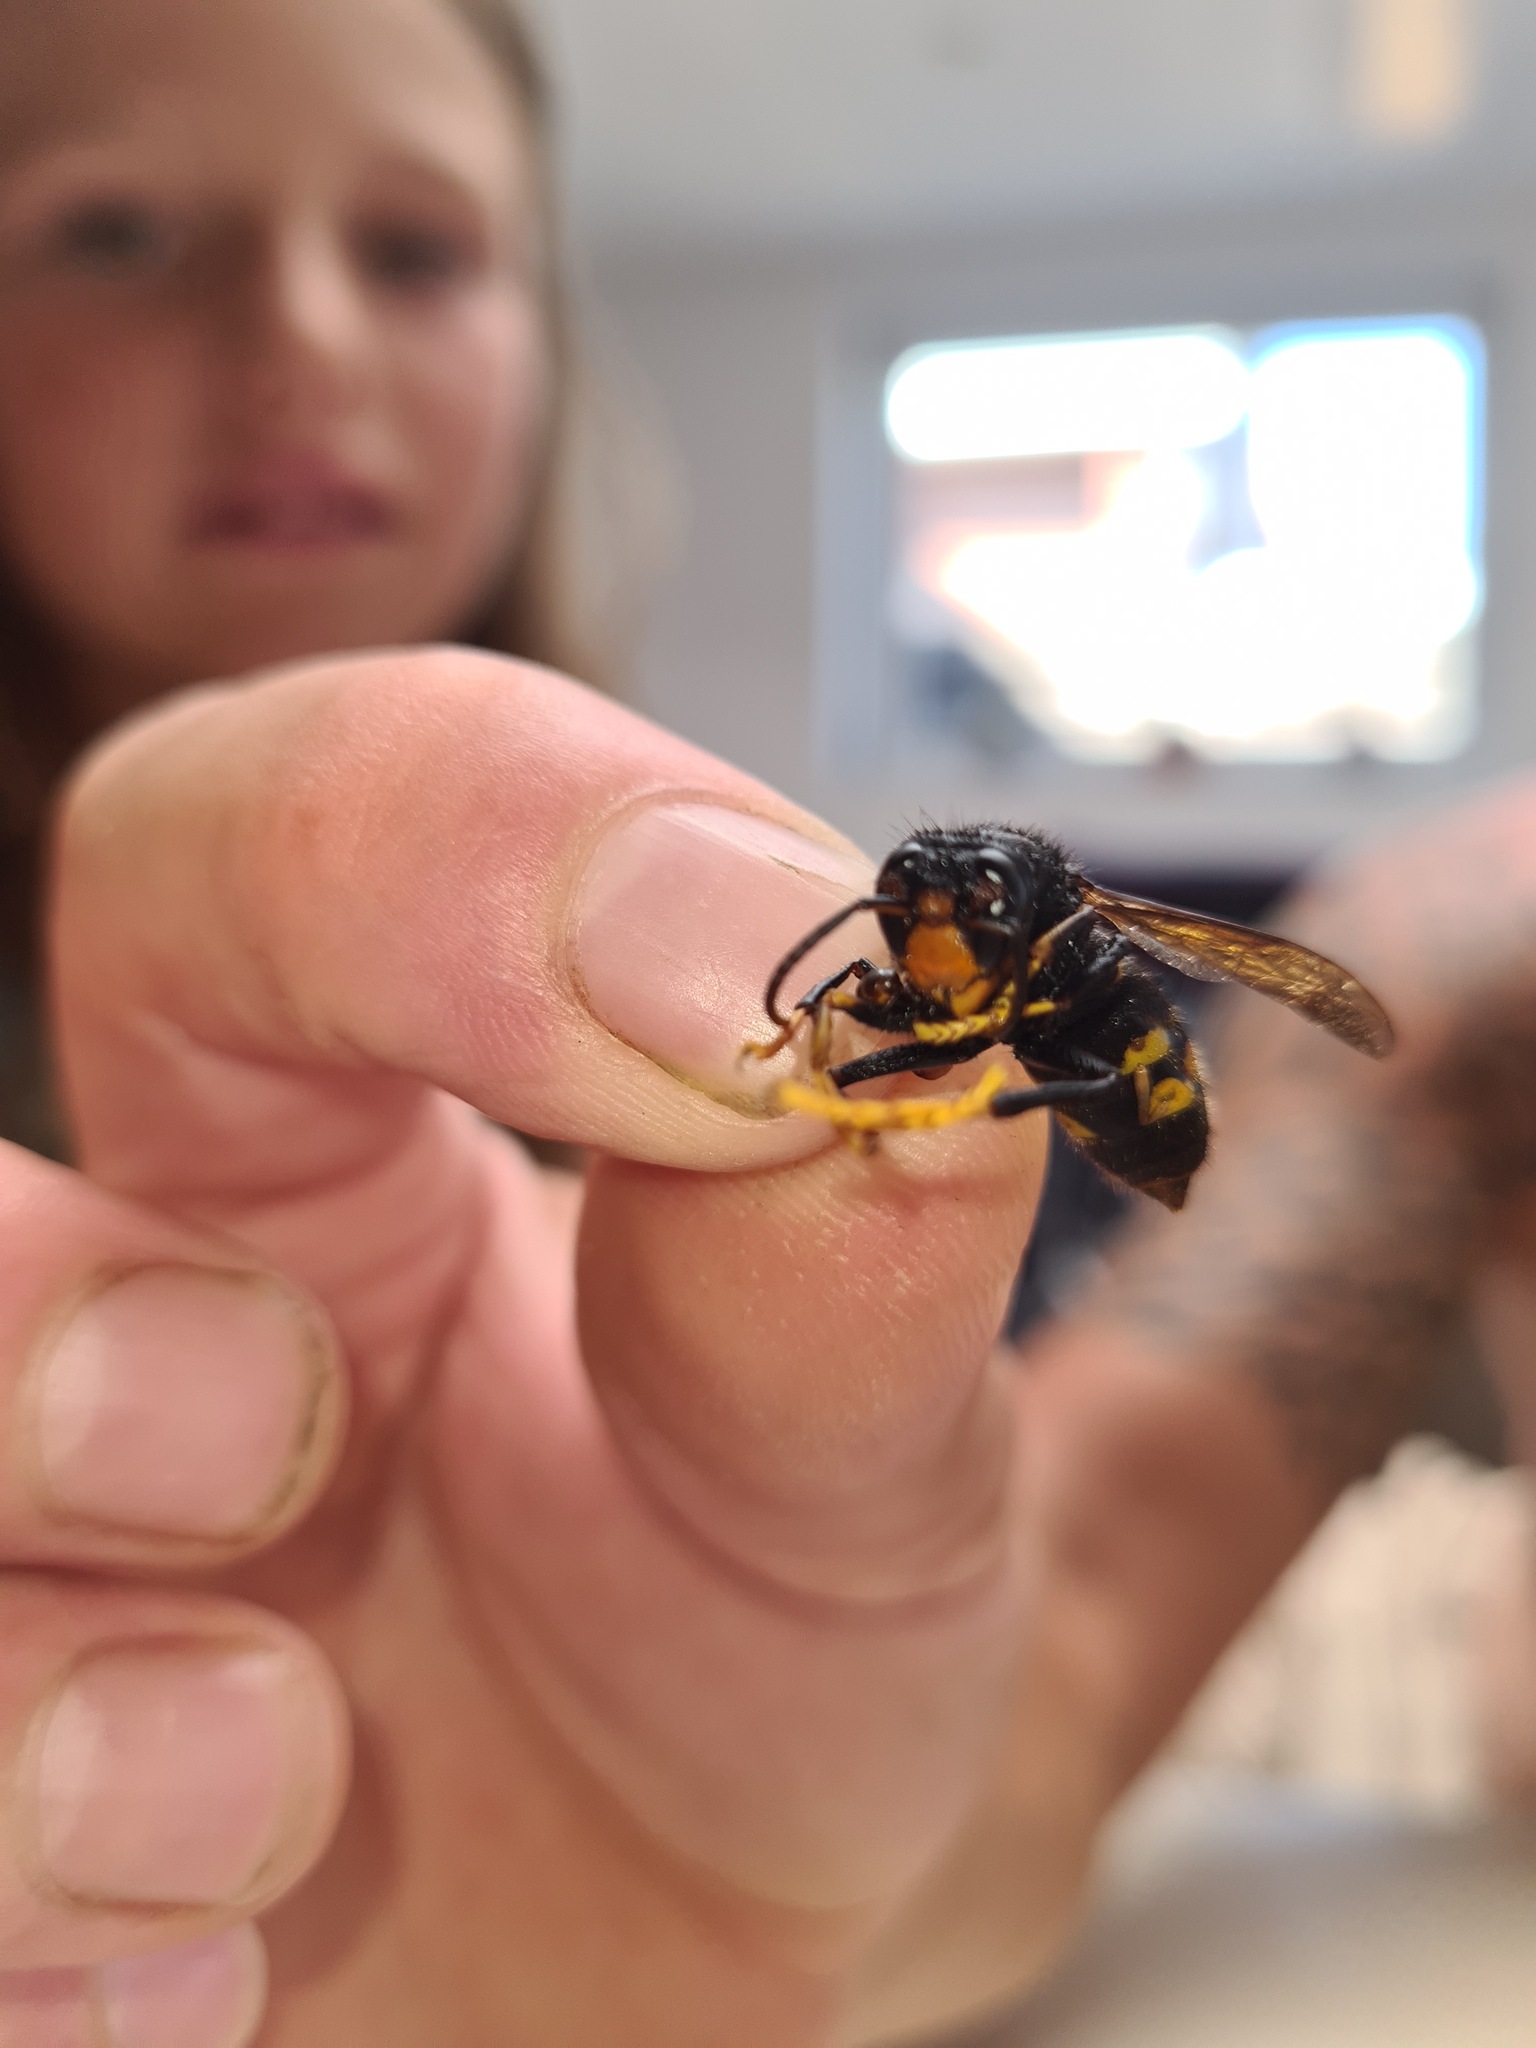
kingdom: Animalia
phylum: Arthropoda
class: Insecta
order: Hymenoptera
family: Vespidae
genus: Vespa
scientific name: Vespa velutina
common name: Asian hornet
